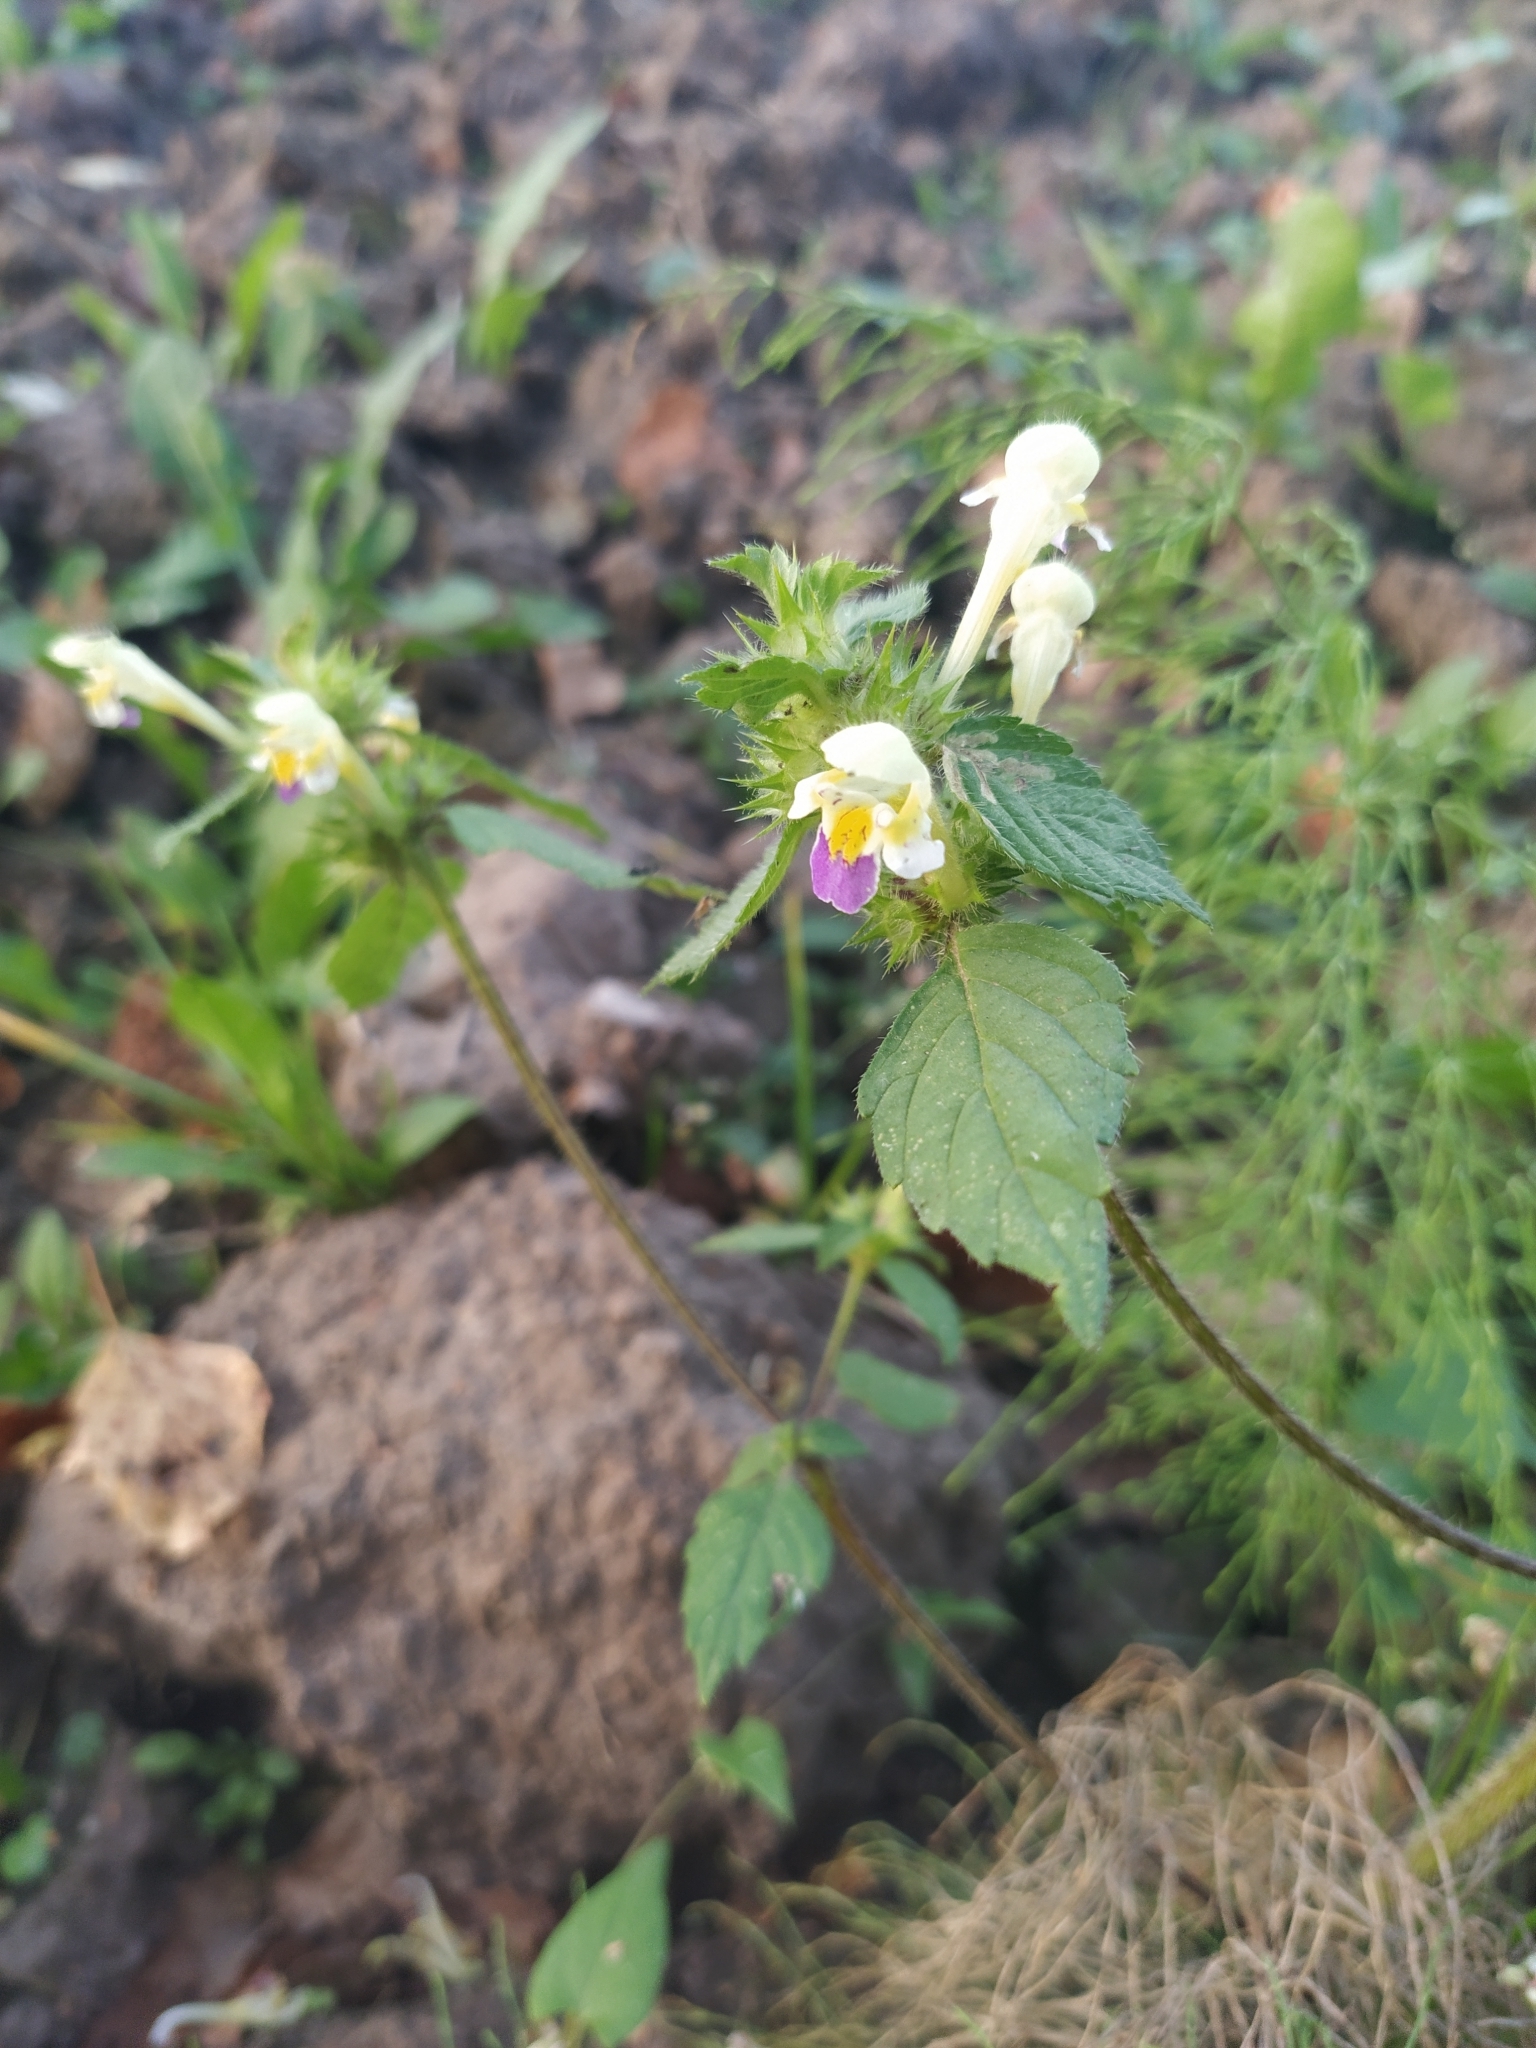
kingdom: Plantae
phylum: Tracheophyta
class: Magnoliopsida
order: Lamiales
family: Lamiaceae
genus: Galeopsis
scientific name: Galeopsis speciosa
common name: Large-flowered hemp-nettle
